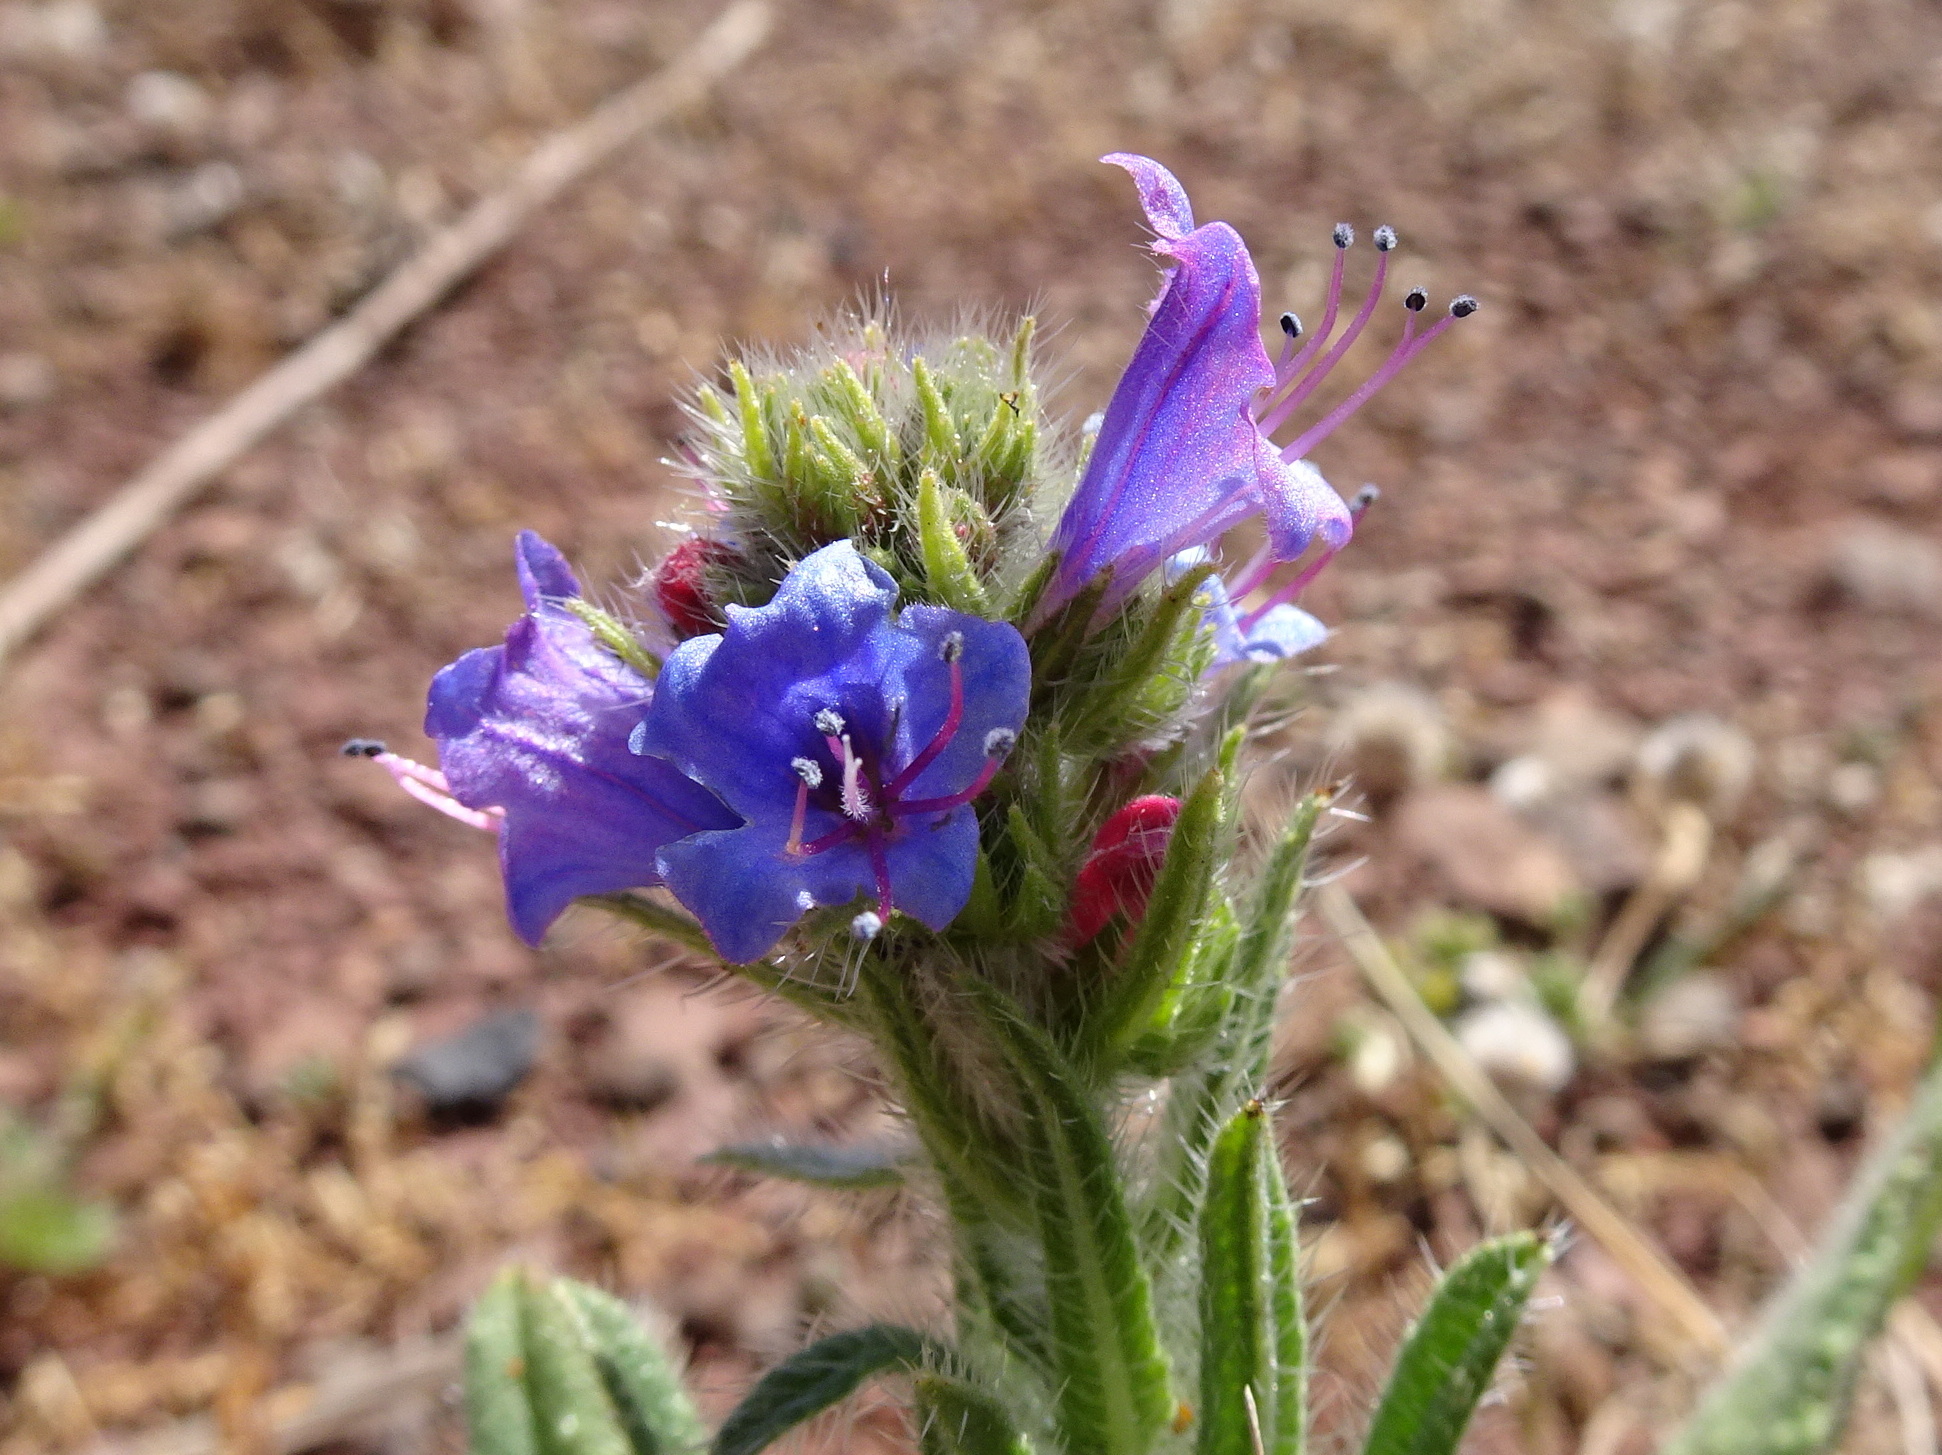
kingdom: Plantae
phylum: Tracheophyta
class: Magnoliopsida
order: Boraginales
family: Boraginaceae
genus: Echium
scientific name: Echium vulgare
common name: Common viper's bugloss
